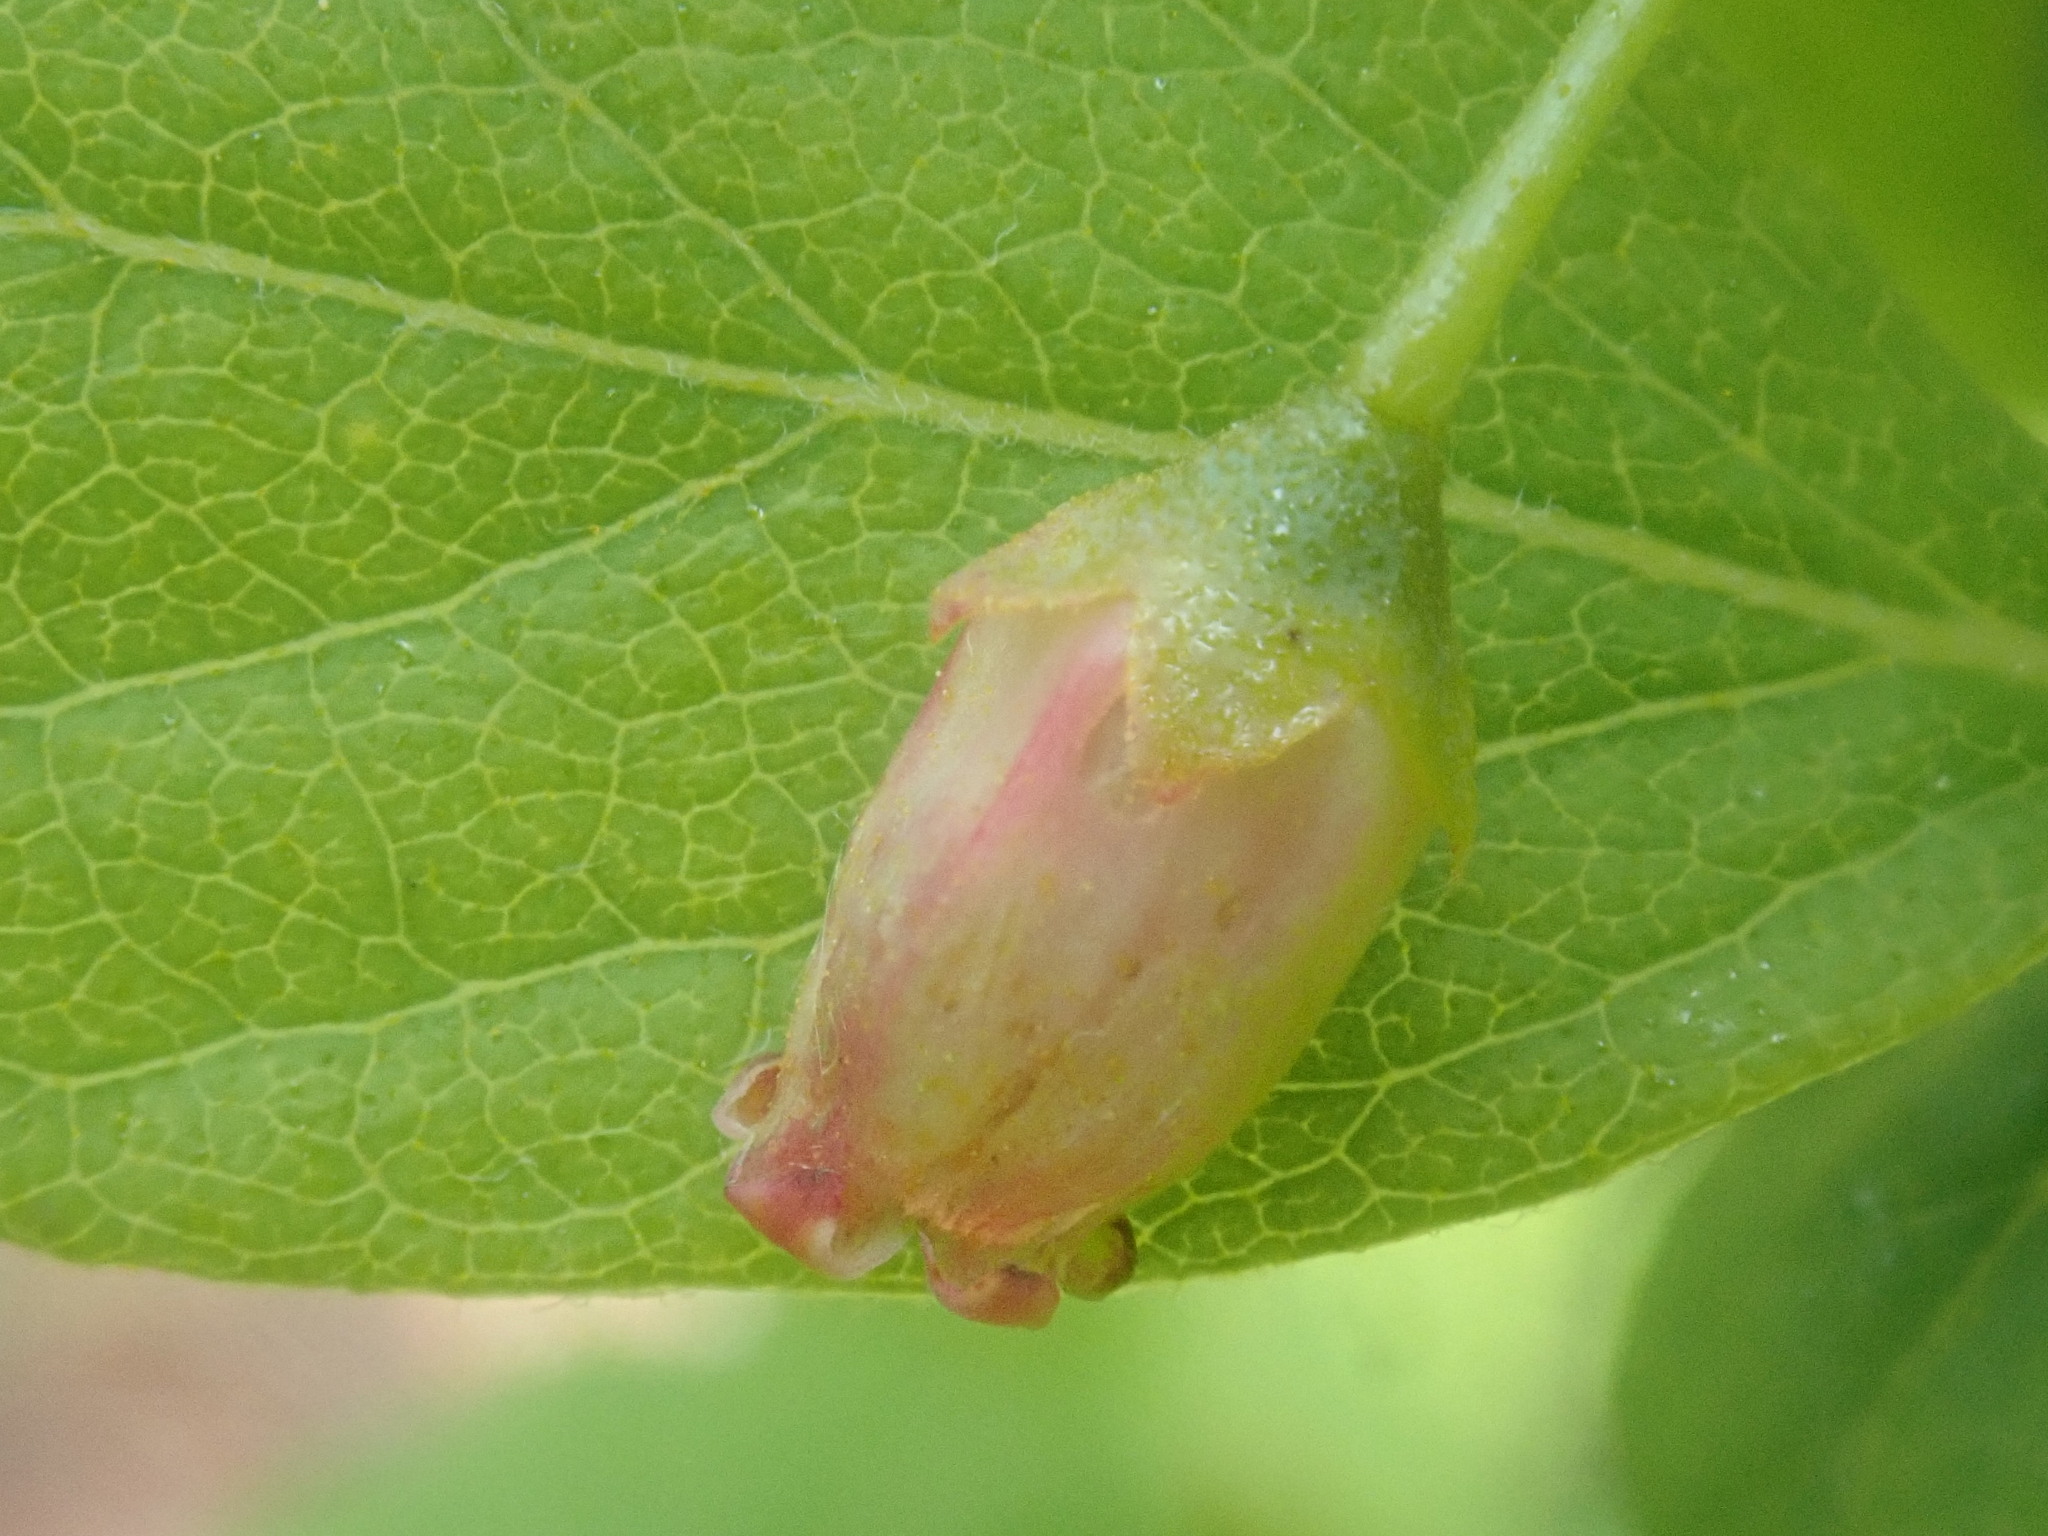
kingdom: Plantae
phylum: Tracheophyta
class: Magnoliopsida
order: Ericales
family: Ericaceae
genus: Gaylussacia
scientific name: Gaylussacia baccata
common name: Black huckleberry
